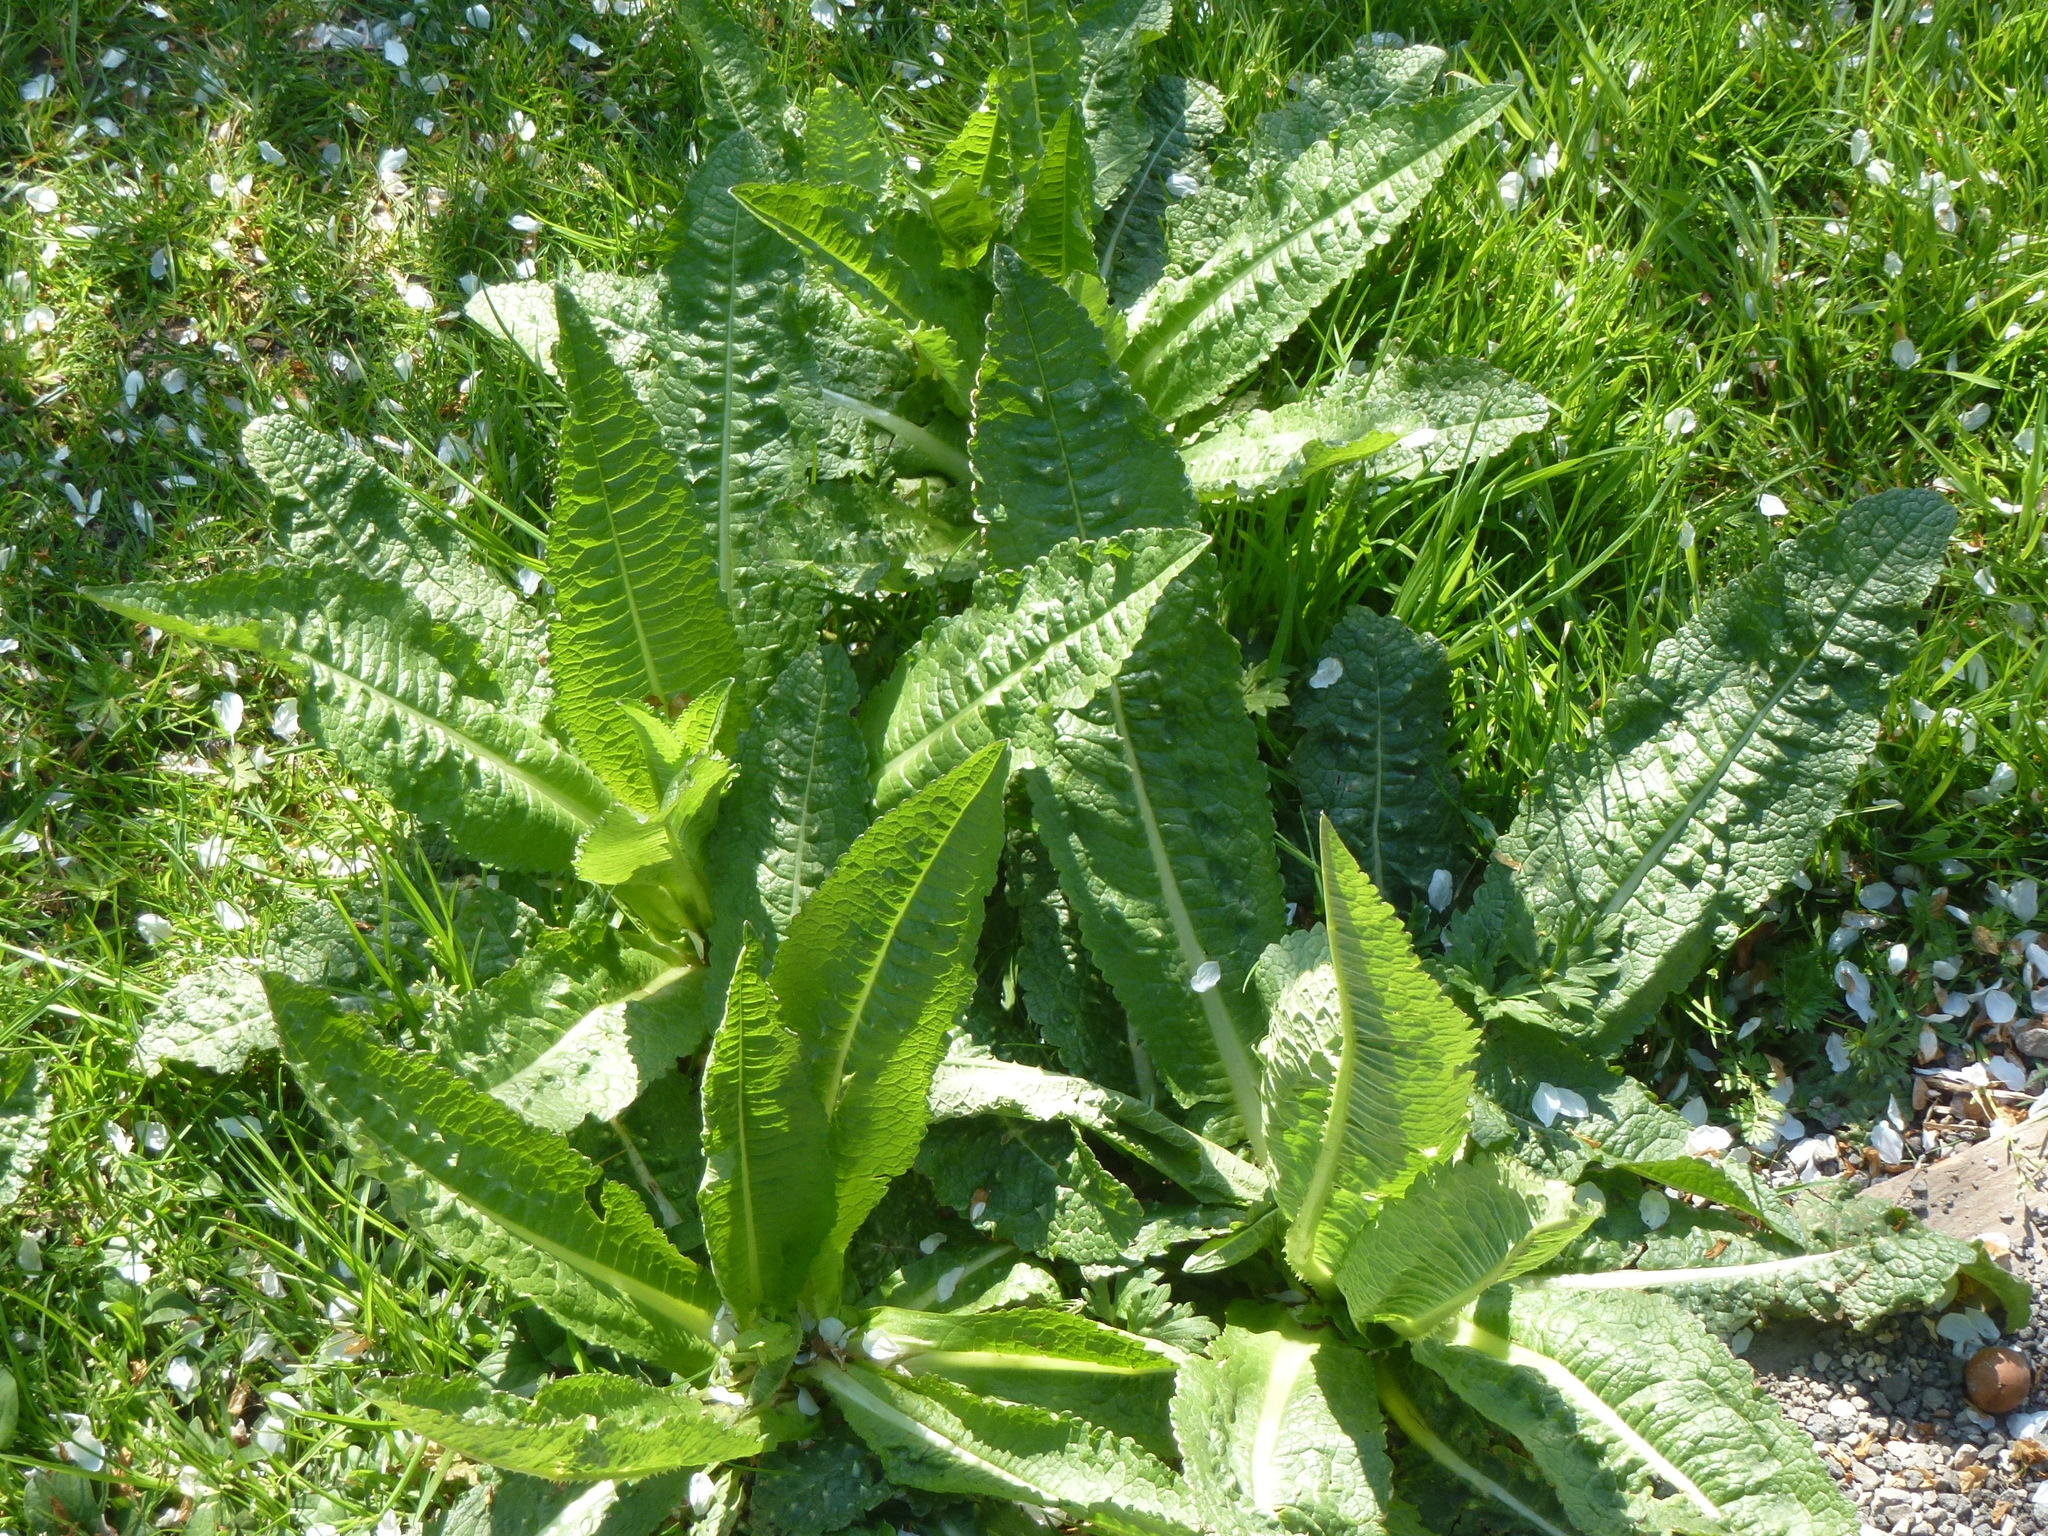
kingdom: Plantae
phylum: Tracheophyta
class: Magnoliopsida
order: Dipsacales
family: Caprifoliaceae
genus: Dipsacus
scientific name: Dipsacus fullonum
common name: Teasel
